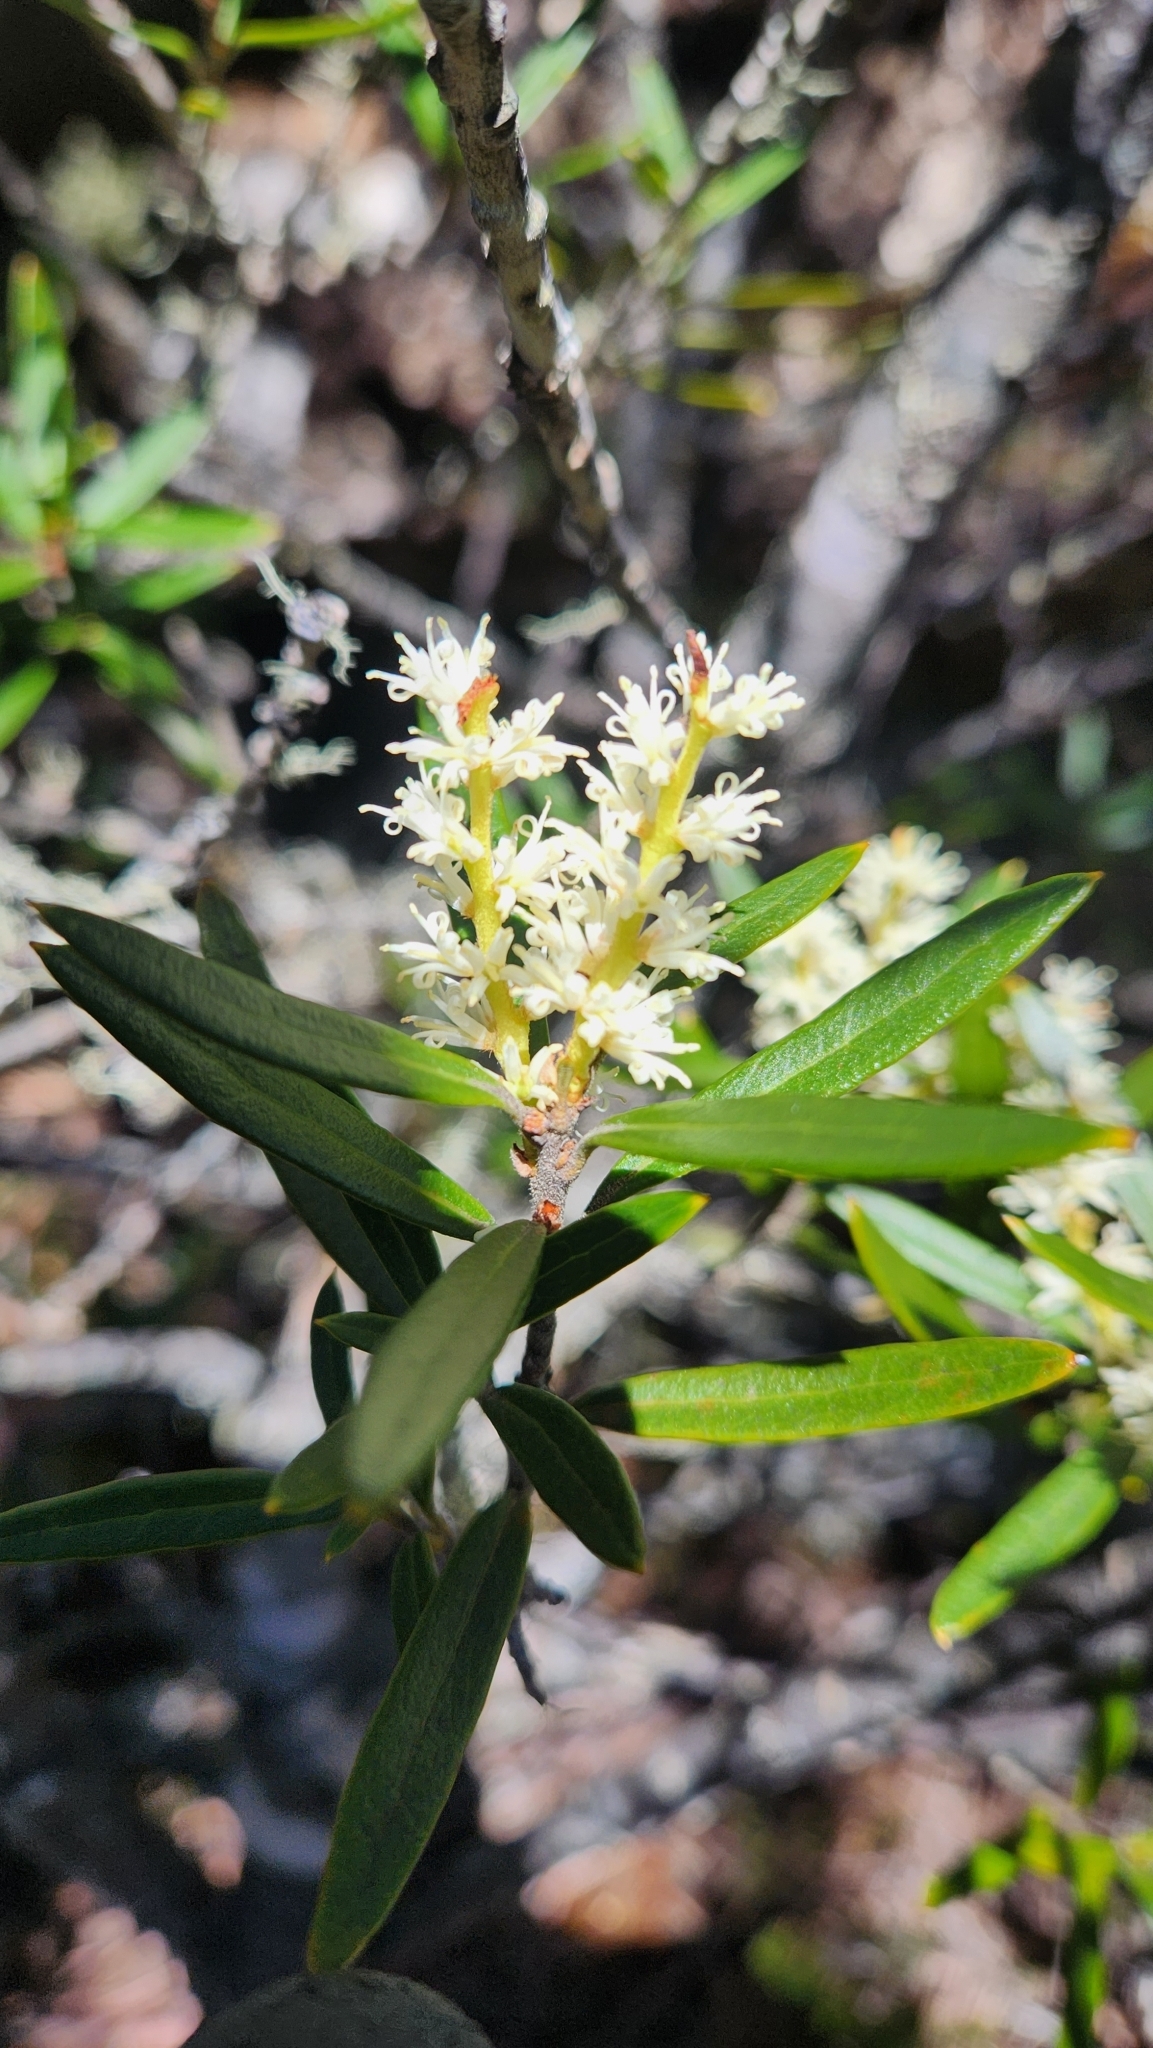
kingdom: Plantae
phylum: Tracheophyta
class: Magnoliopsida
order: Proteales
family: Proteaceae
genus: Orites
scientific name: Orites diversifolius
